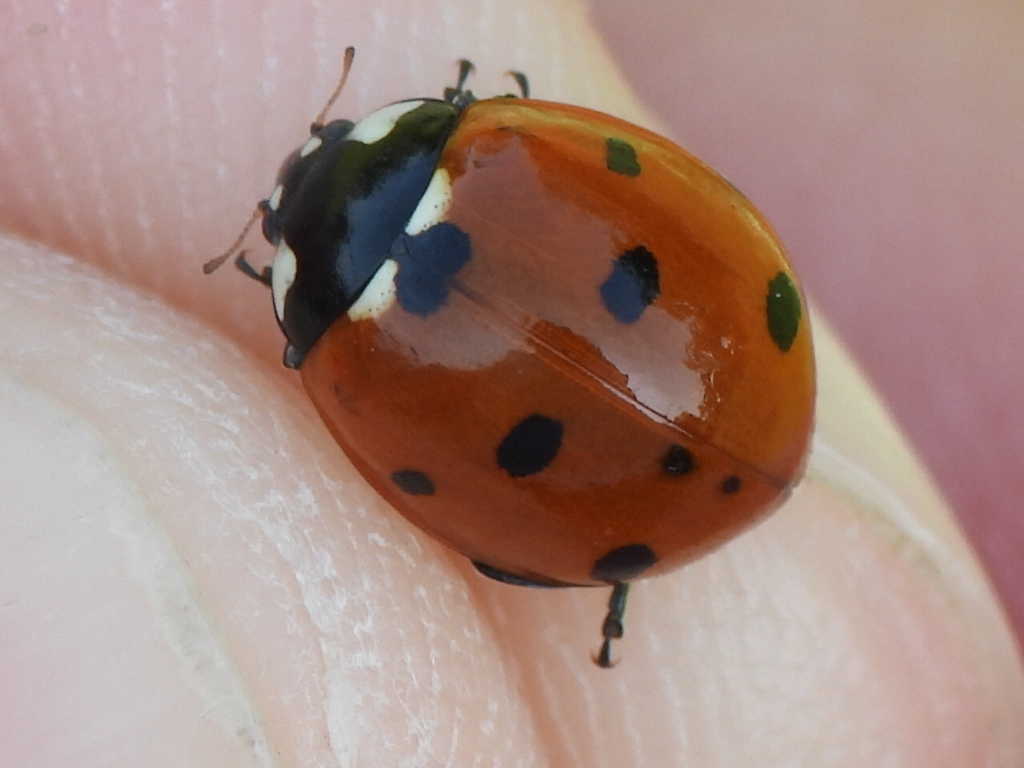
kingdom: Animalia
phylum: Arthropoda
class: Insecta
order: Coleoptera
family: Coccinellidae
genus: Coccinella
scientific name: Coccinella septempunctata
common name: Sevenspotted lady beetle
